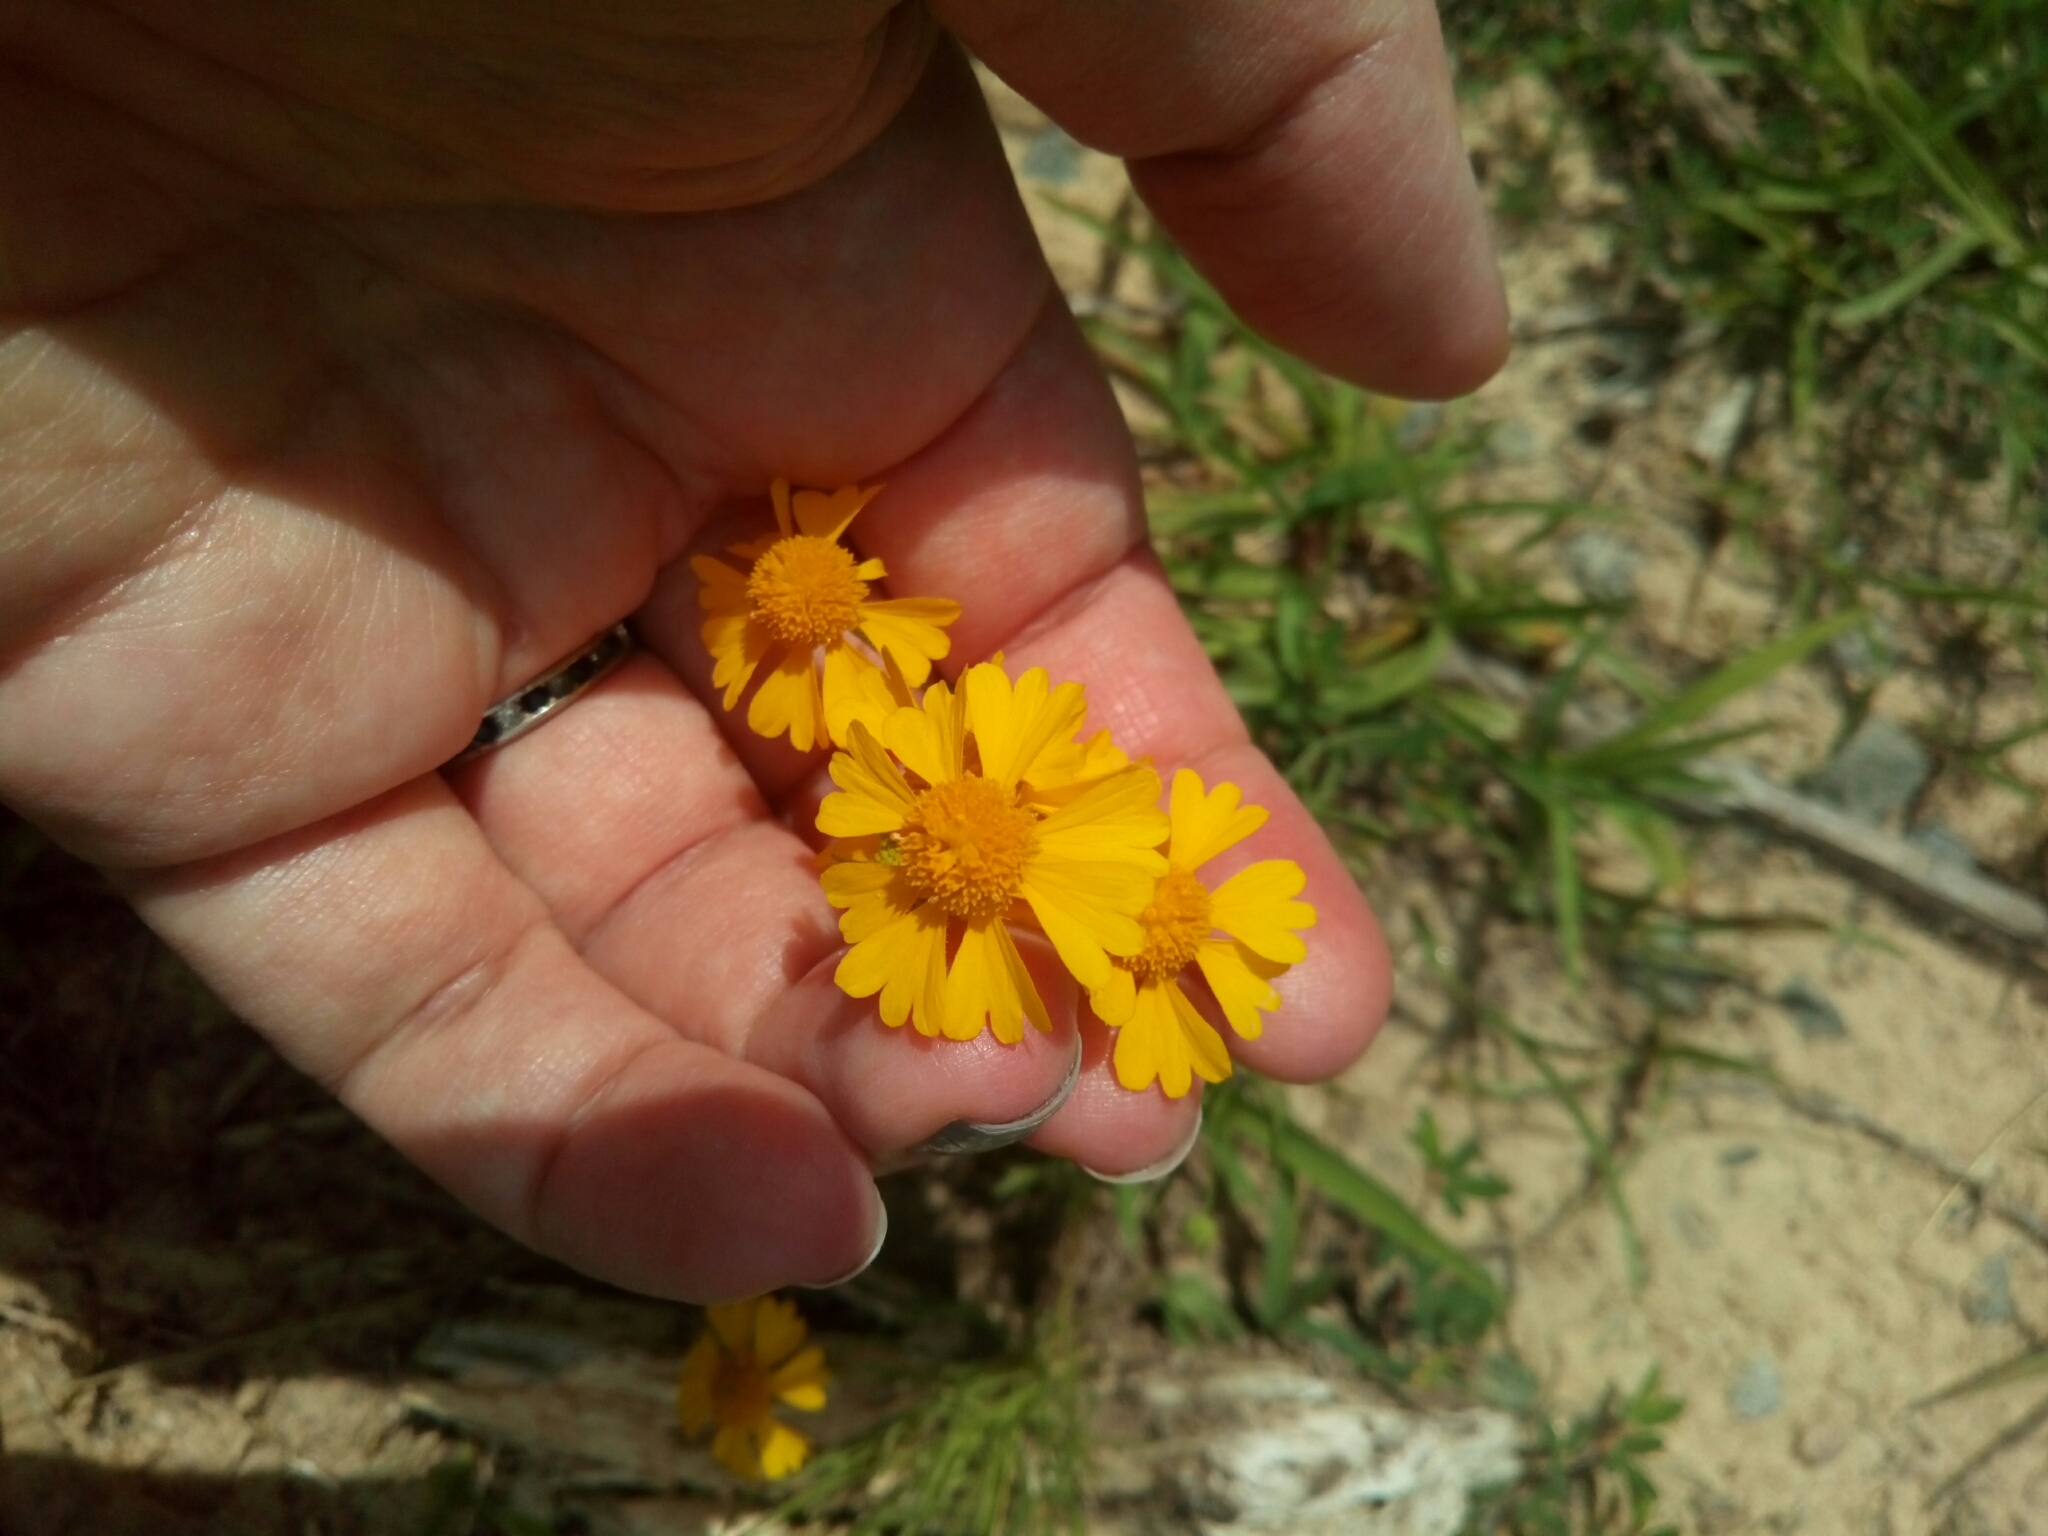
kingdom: Plantae
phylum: Tracheophyta
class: Magnoliopsida
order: Asterales
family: Asteraceae
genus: Helenium
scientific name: Helenium amarum
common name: Bitter sneezeweed
